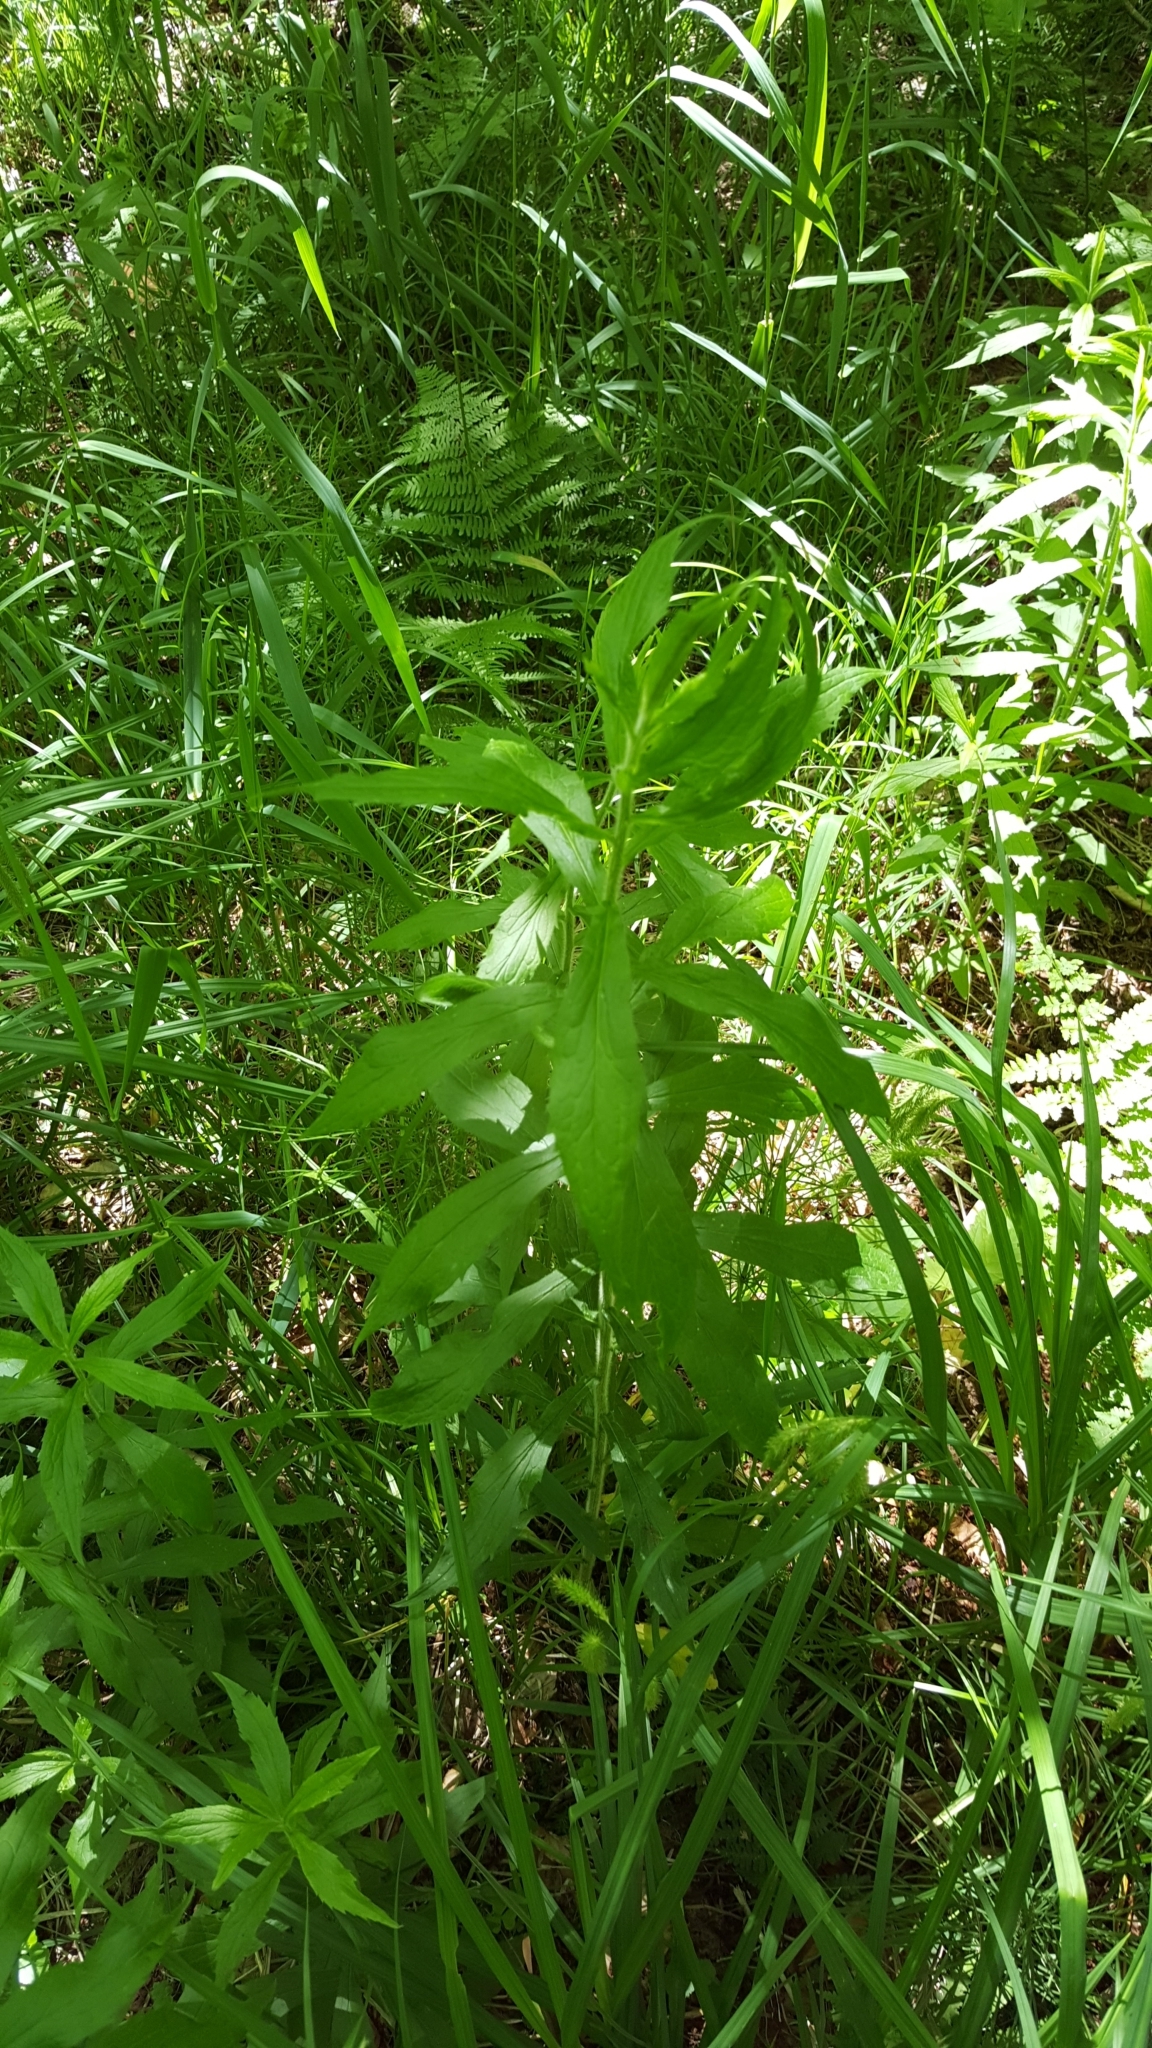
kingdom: Plantae
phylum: Tracheophyta
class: Magnoliopsida
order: Asterales
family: Asteraceae
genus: Solidago
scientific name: Solidago rugosa
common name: Rough-stemmed goldenrod
